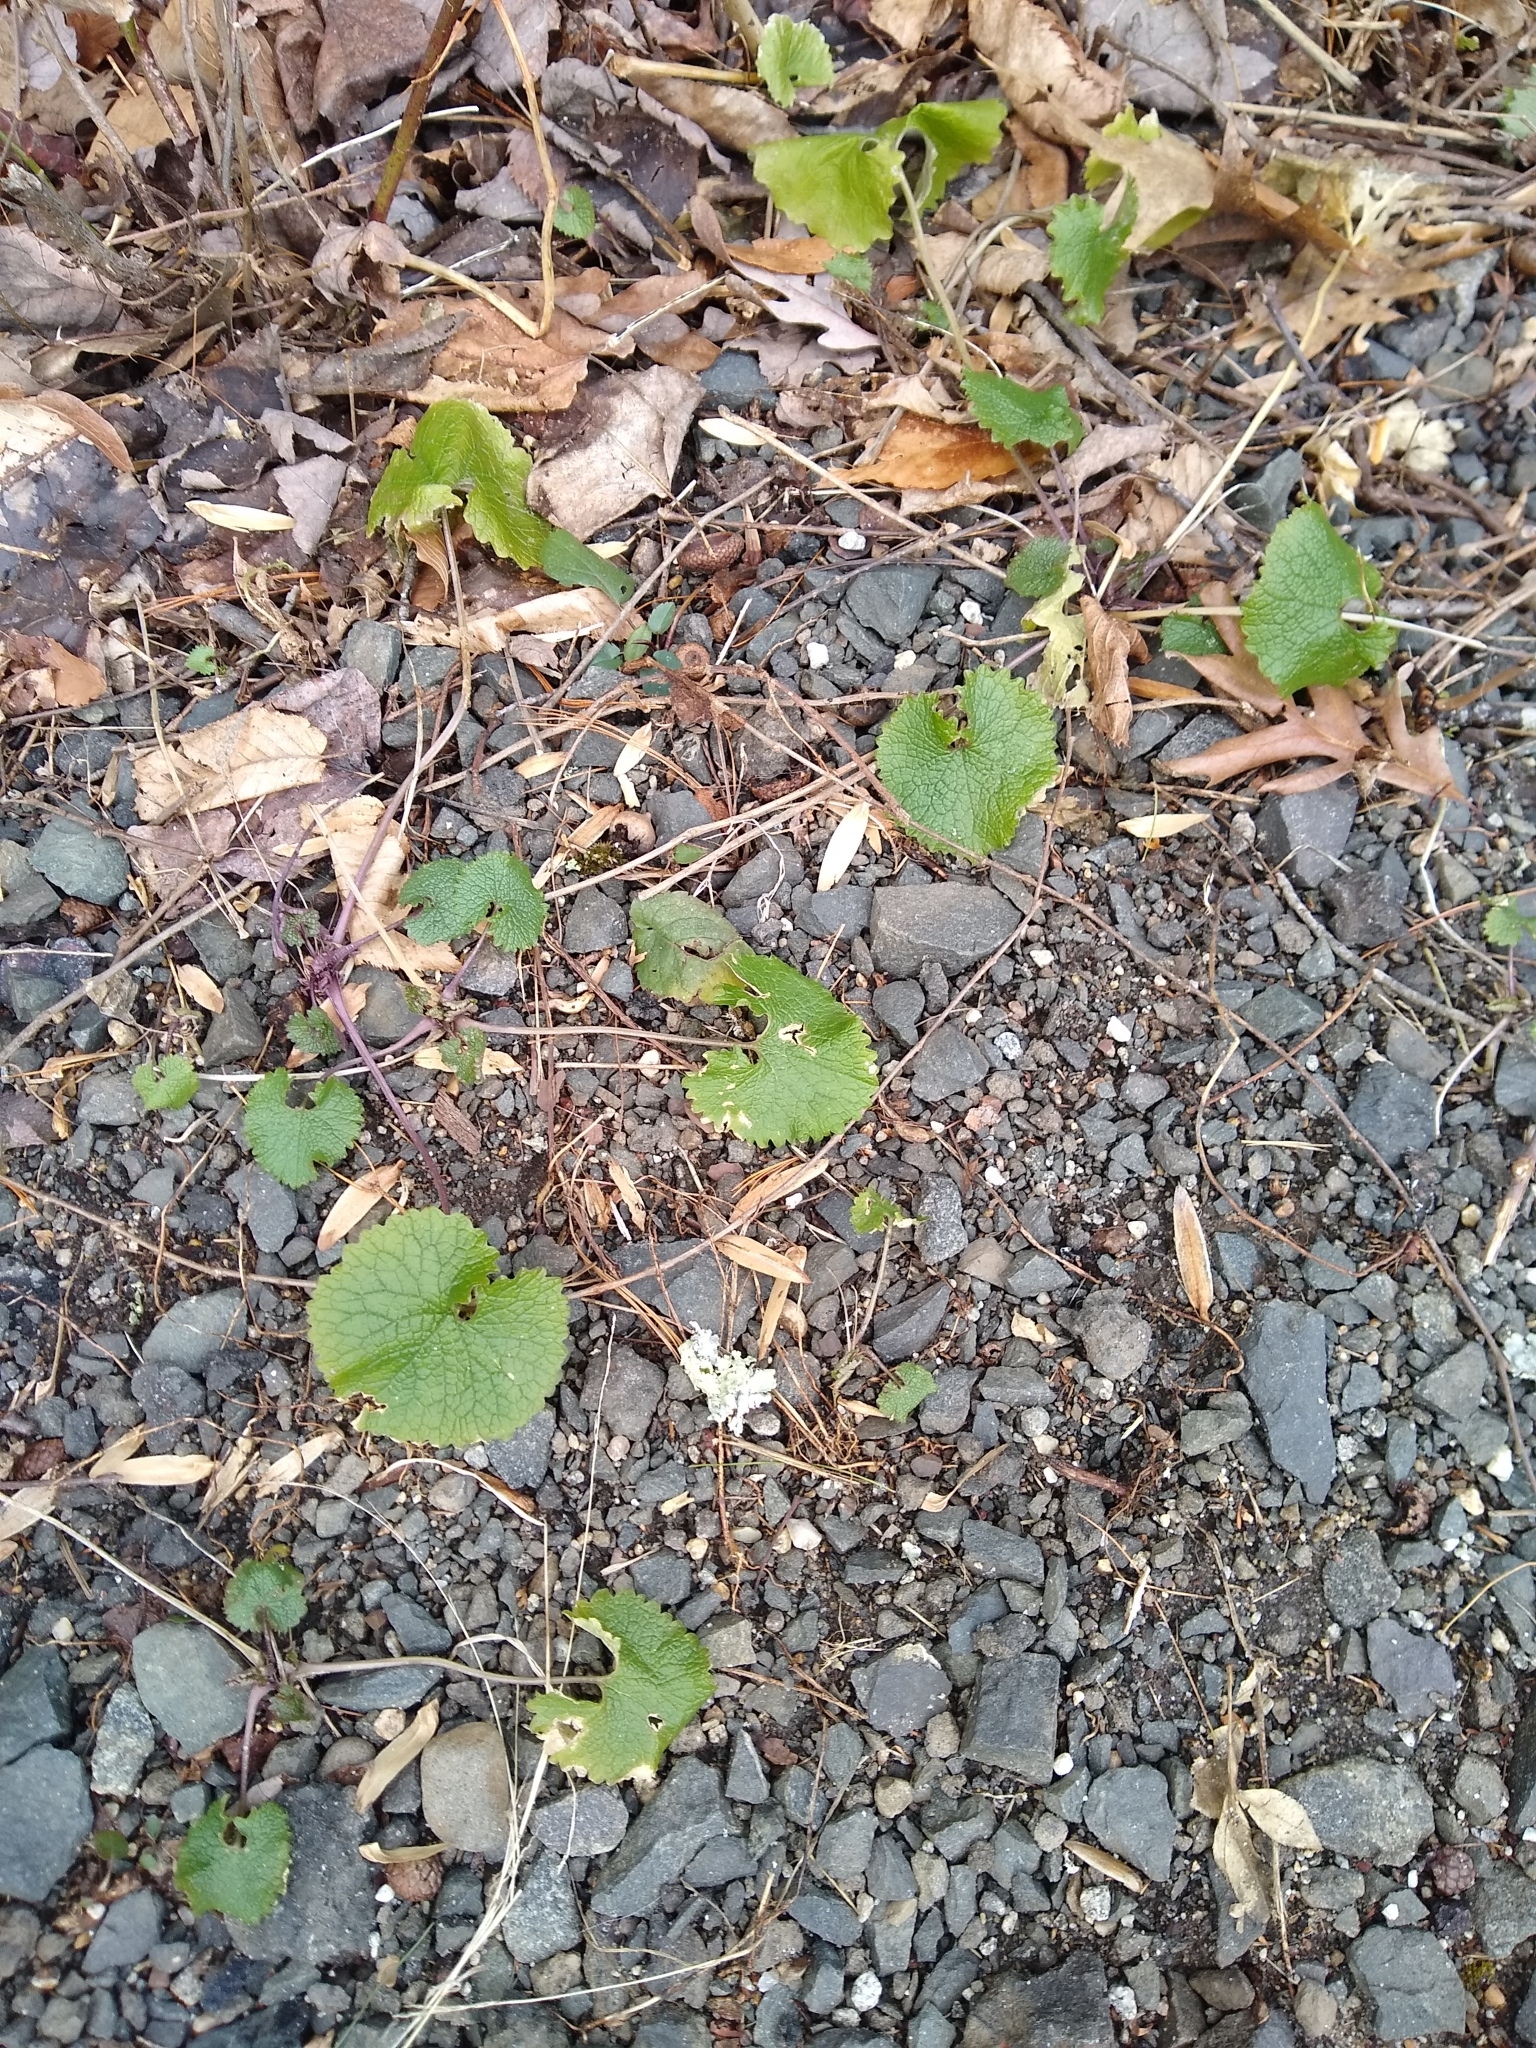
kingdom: Plantae
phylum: Tracheophyta
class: Magnoliopsida
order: Brassicales
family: Brassicaceae
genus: Alliaria
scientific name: Alliaria petiolata
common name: Garlic mustard
